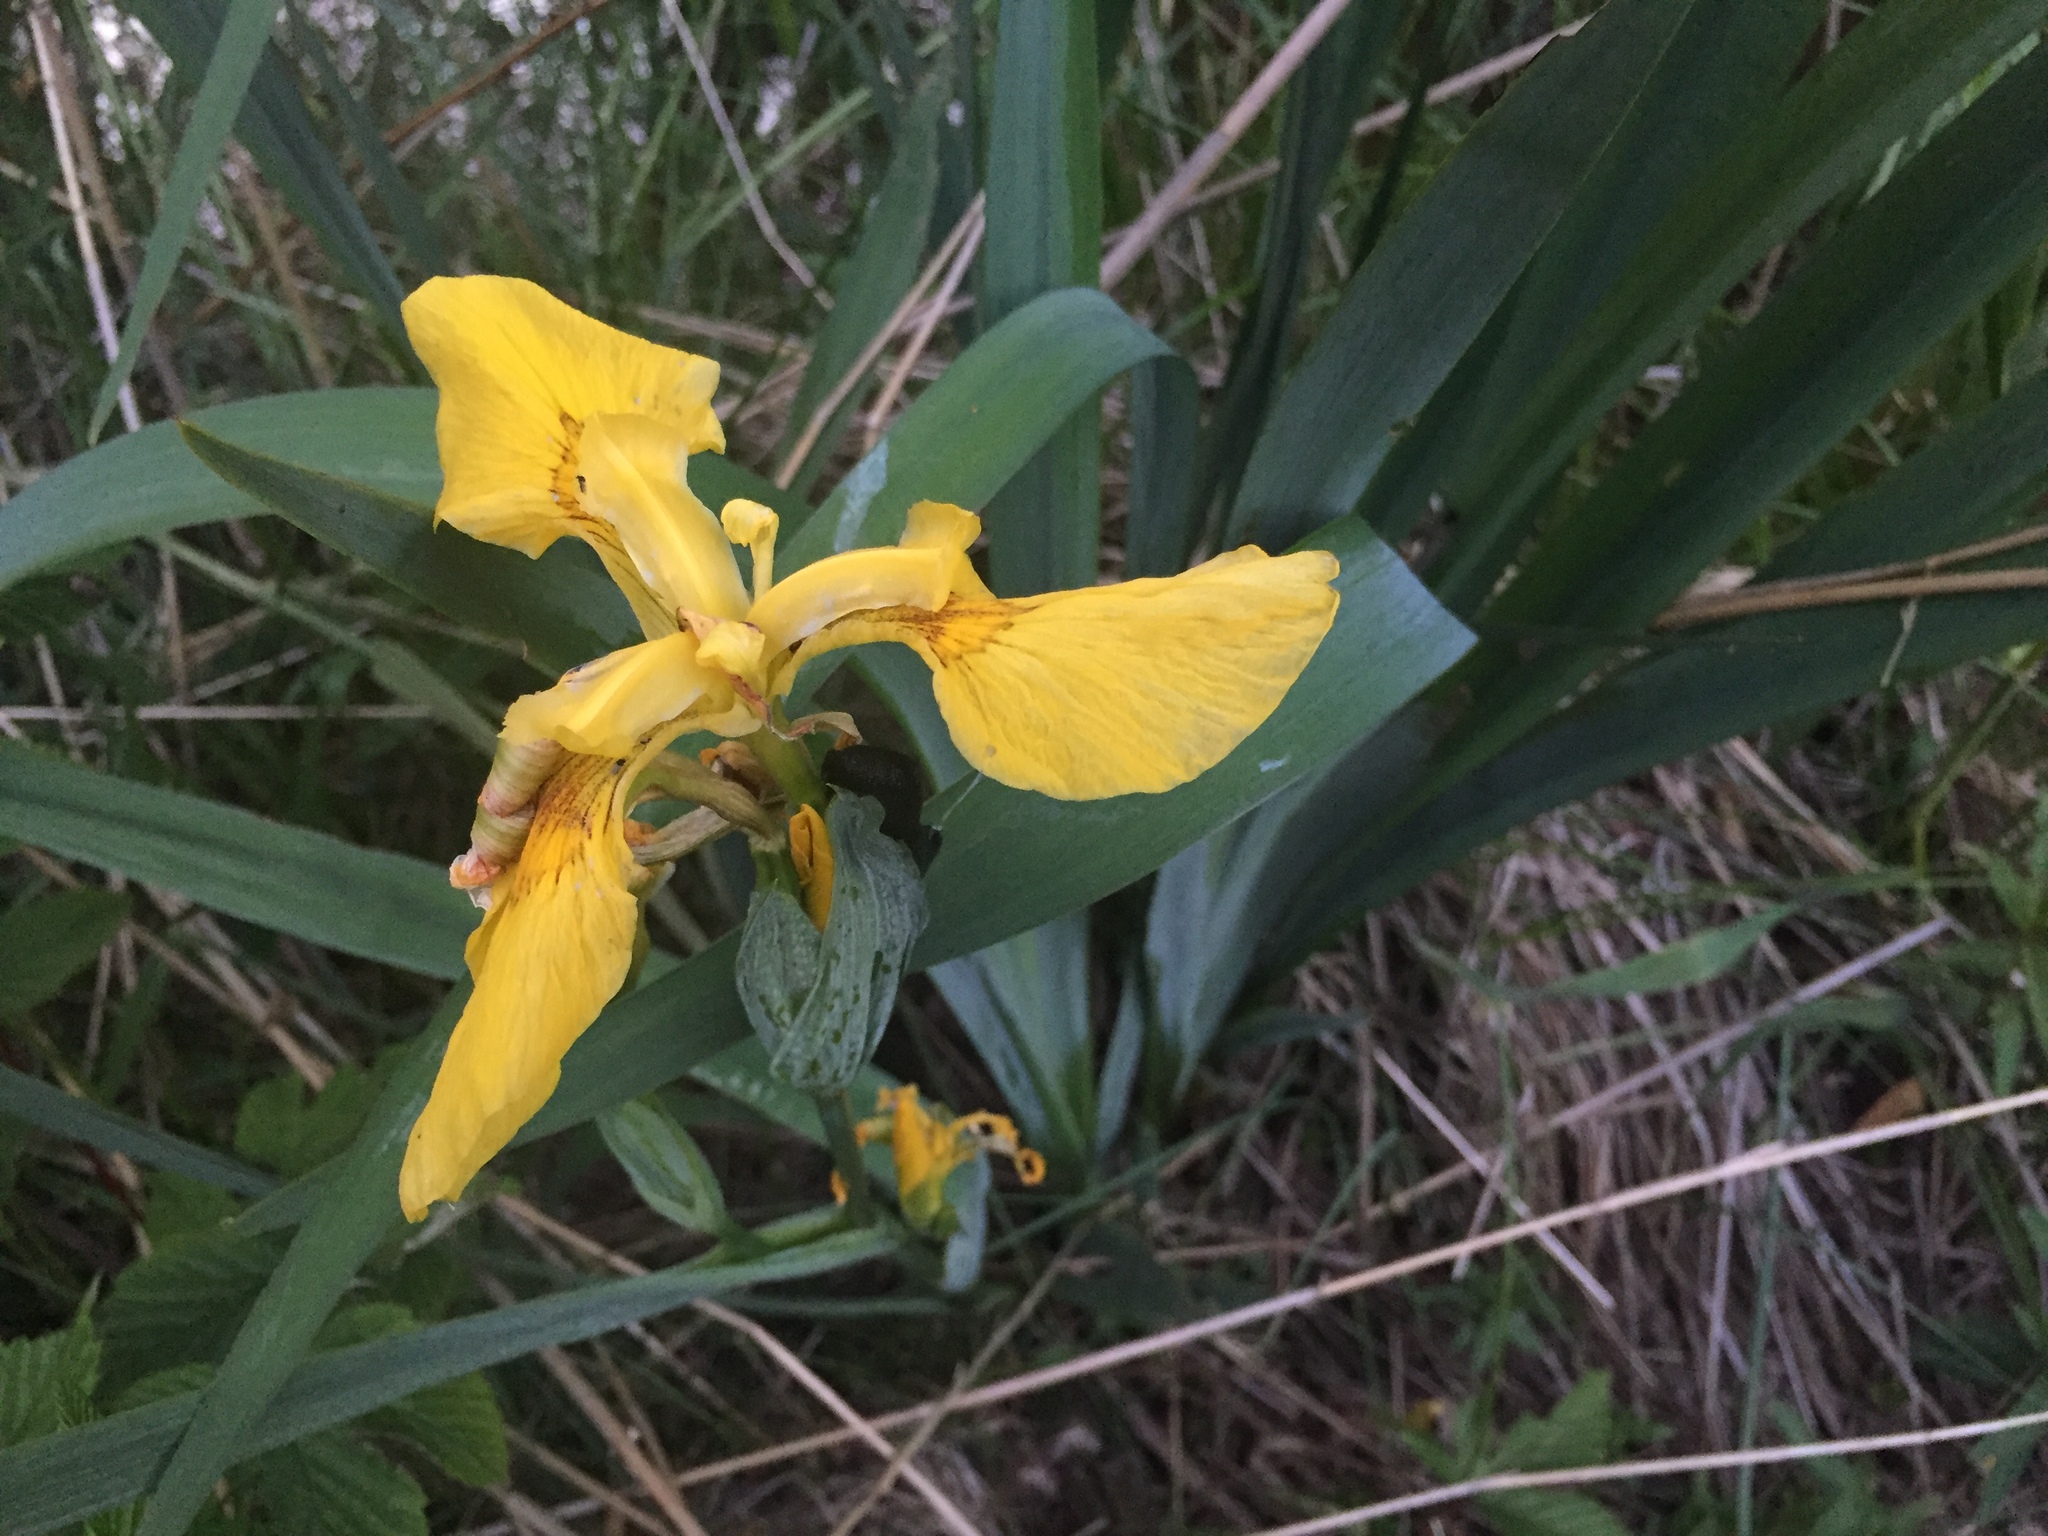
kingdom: Plantae
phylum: Tracheophyta
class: Liliopsida
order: Asparagales
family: Iridaceae
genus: Iris
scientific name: Iris pseudacorus
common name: Yellow flag
